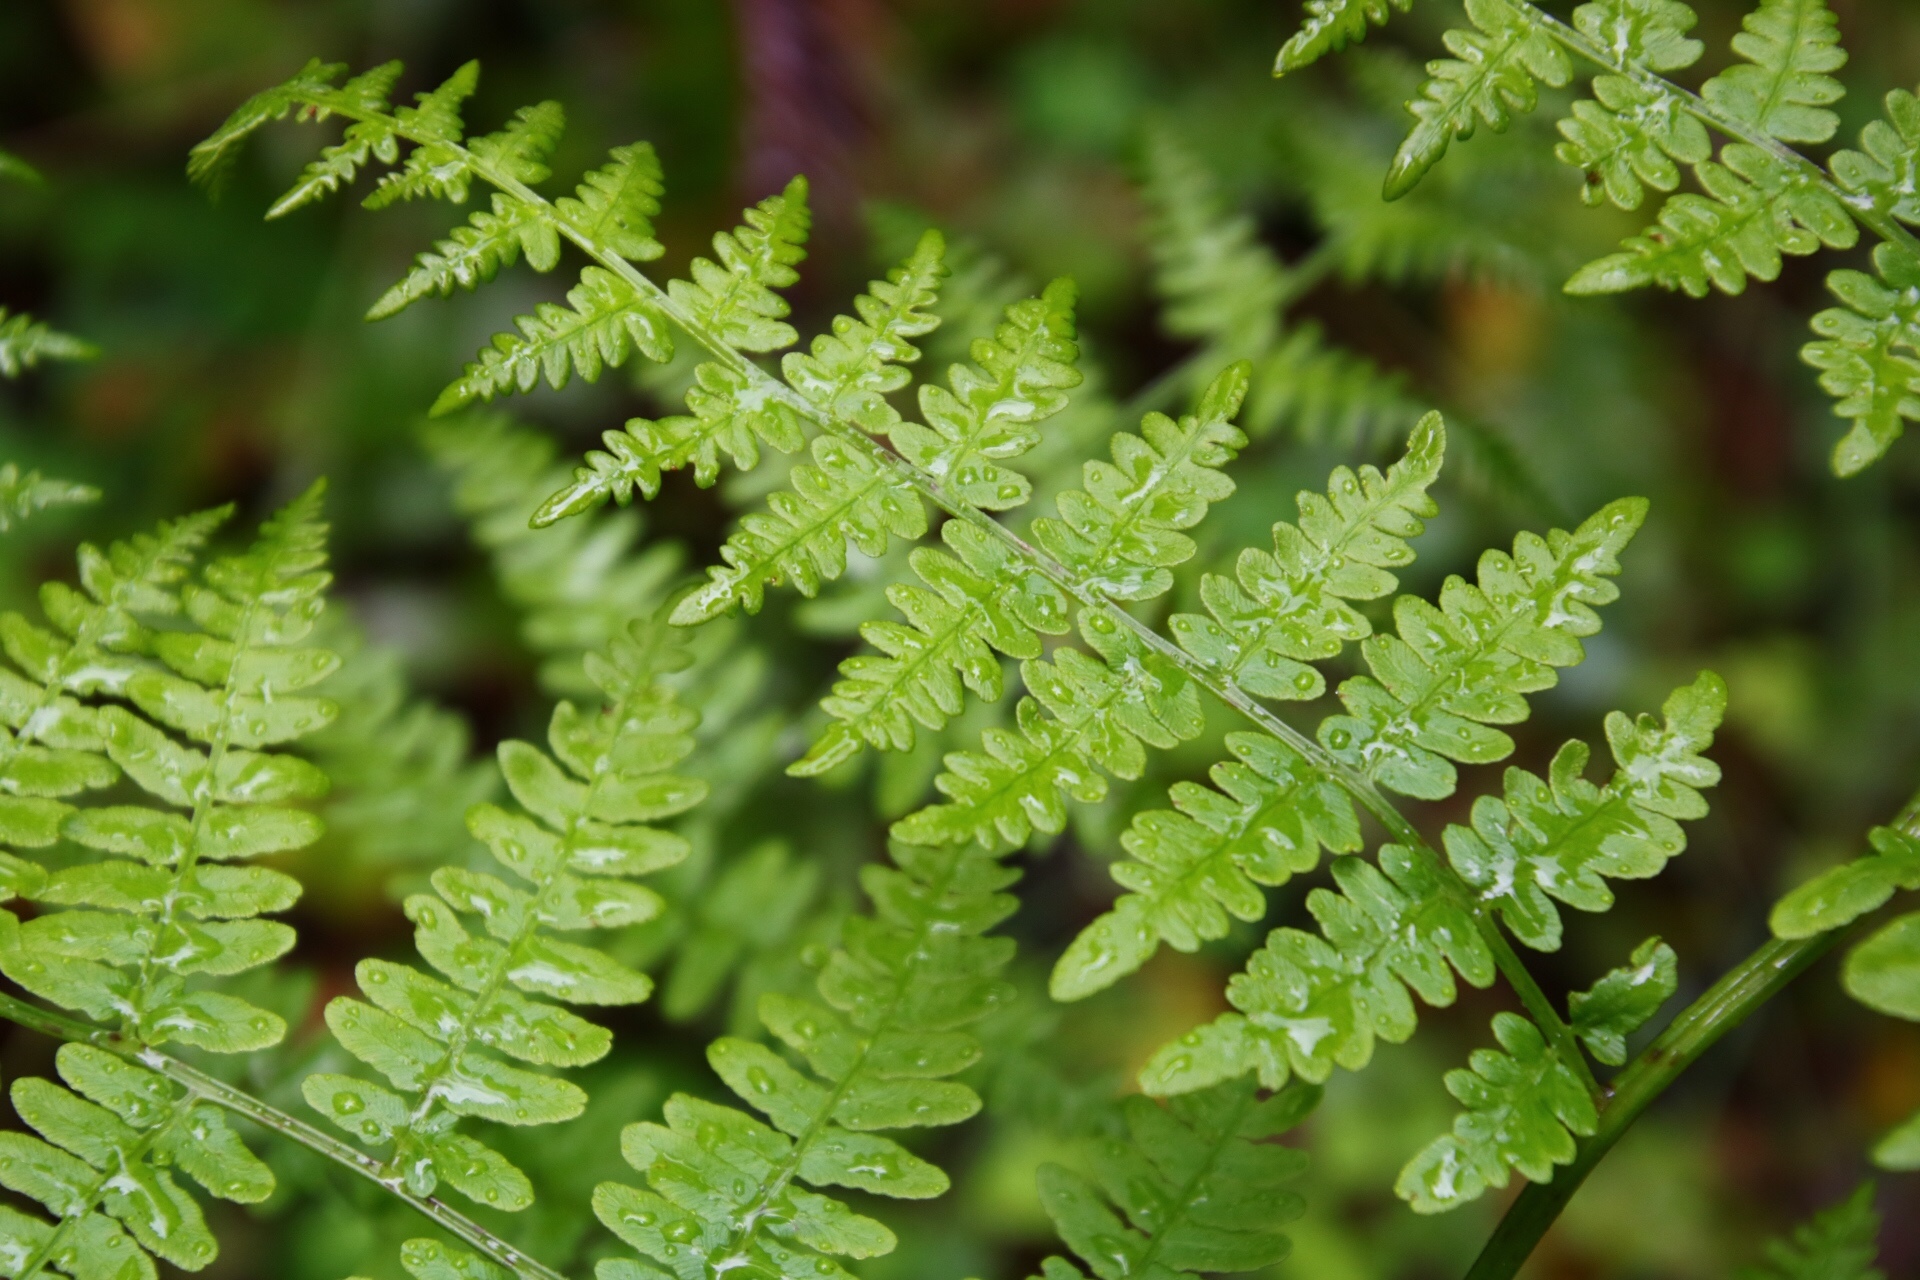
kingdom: Plantae
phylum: Tracheophyta
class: Polypodiopsida
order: Polypodiales
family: Dennstaedtiaceae
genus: Pteridium
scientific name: Pteridium aquilinum
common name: Bracken
